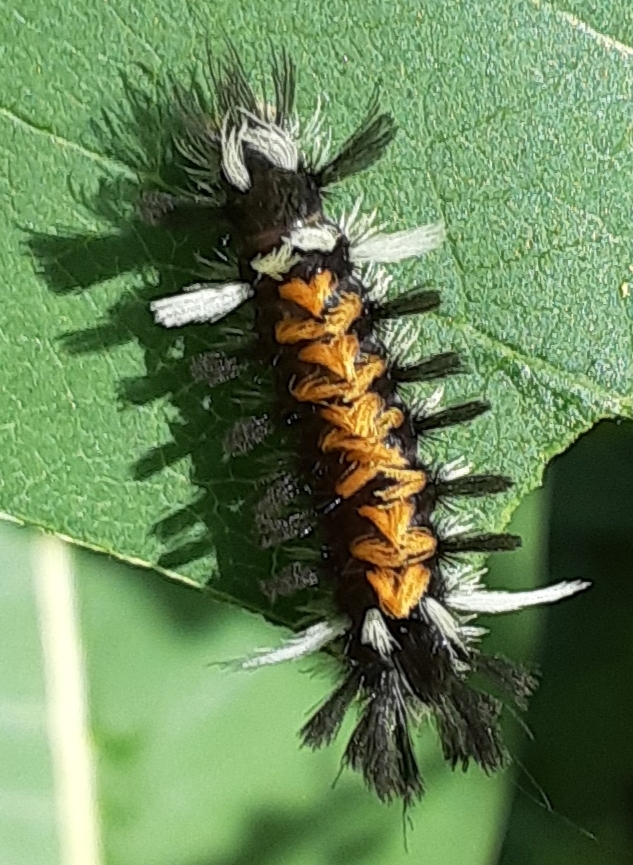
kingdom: Animalia
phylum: Arthropoda
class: Insecta
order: Lepidoptera
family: Erebidae
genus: Euchaetes
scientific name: Euchaetes egle
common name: Milkweed tussock moth
